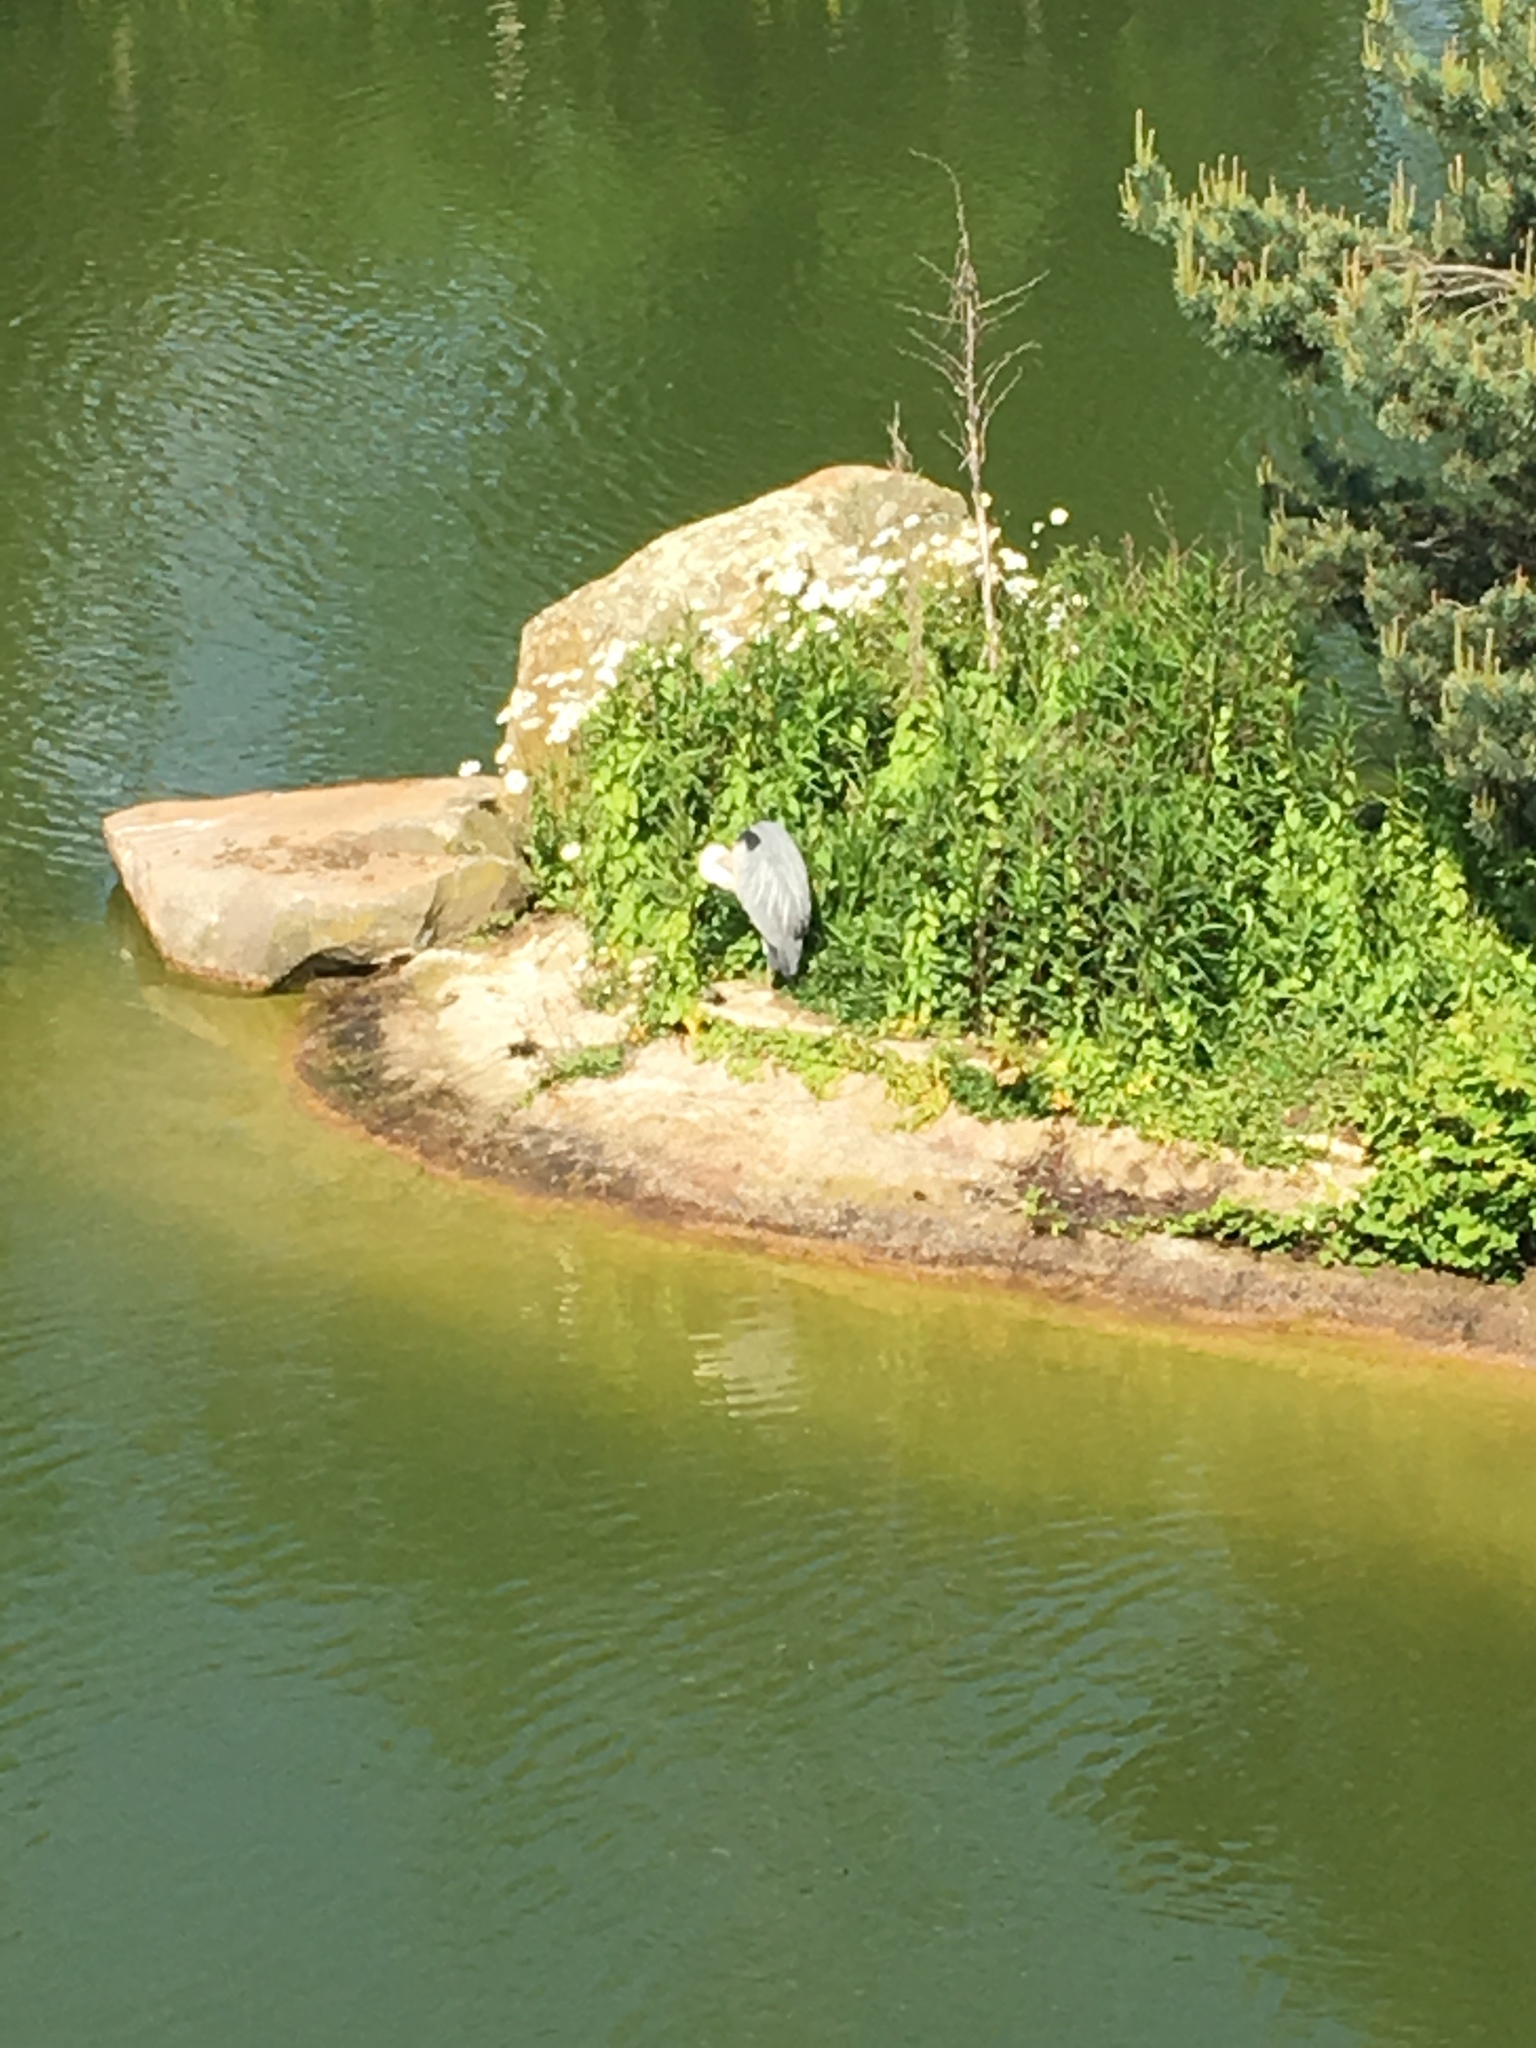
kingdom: Animalia
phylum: Chordata
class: Aves
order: Pelecaniformes
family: Ardeidae
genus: Ardea
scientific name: Ardea cinerea
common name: Grey heron
